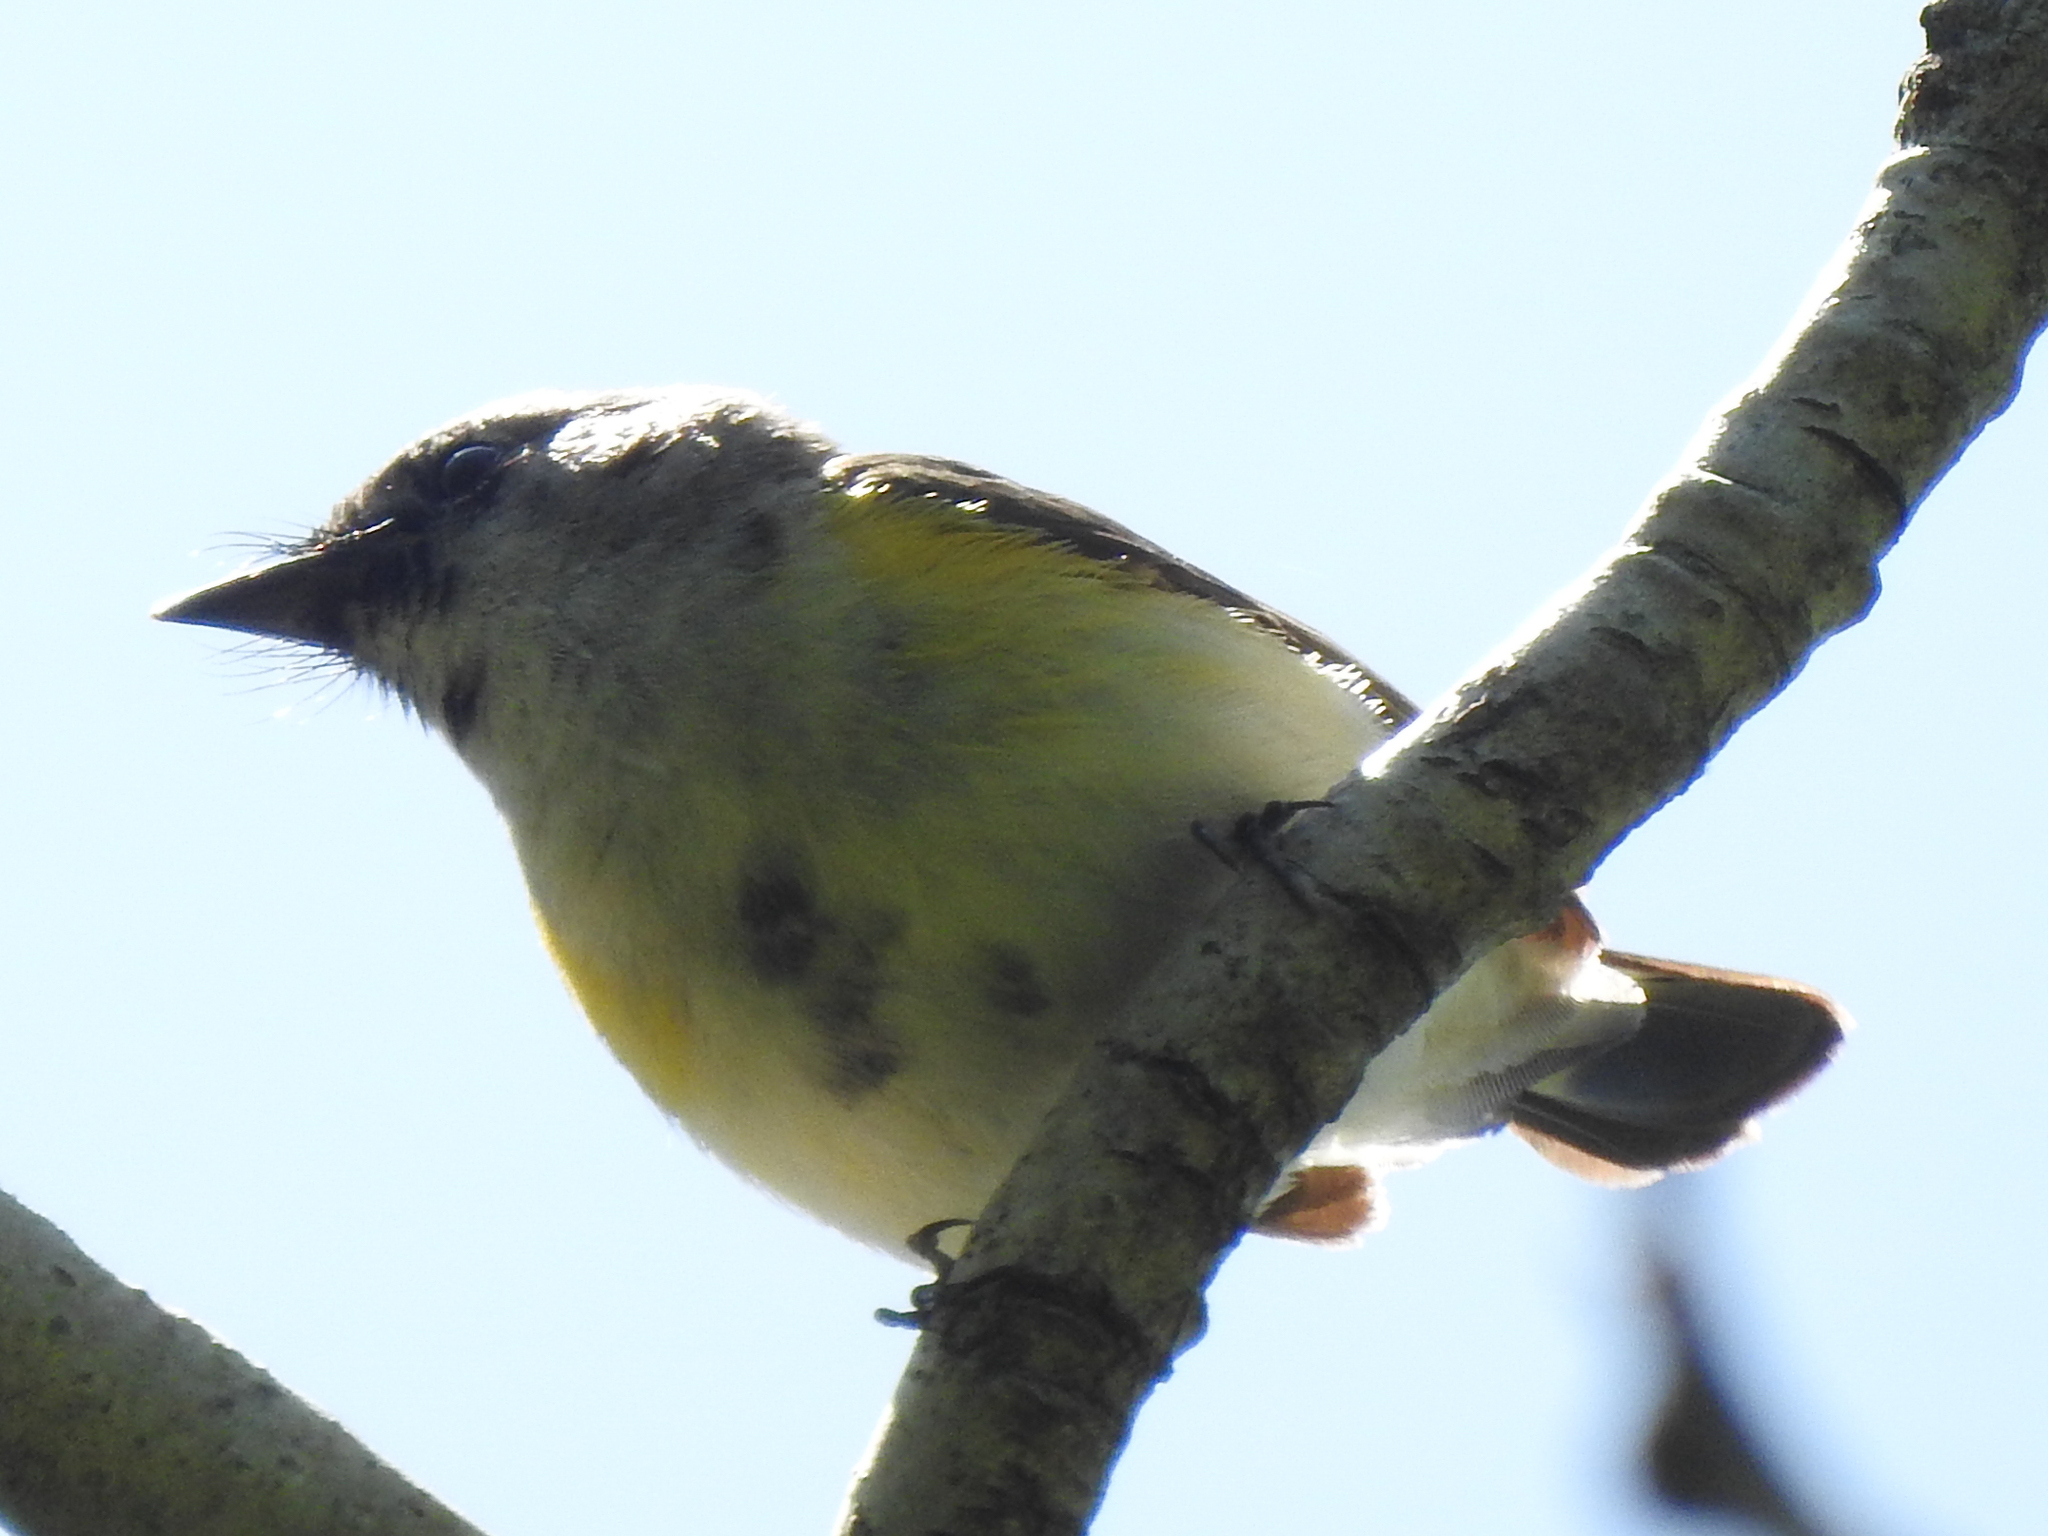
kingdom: Animalia
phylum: Chordata
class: Aves
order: Passeriformes
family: Parulidae
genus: Setophaga
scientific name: Setophaga ruticilla
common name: American redstart
